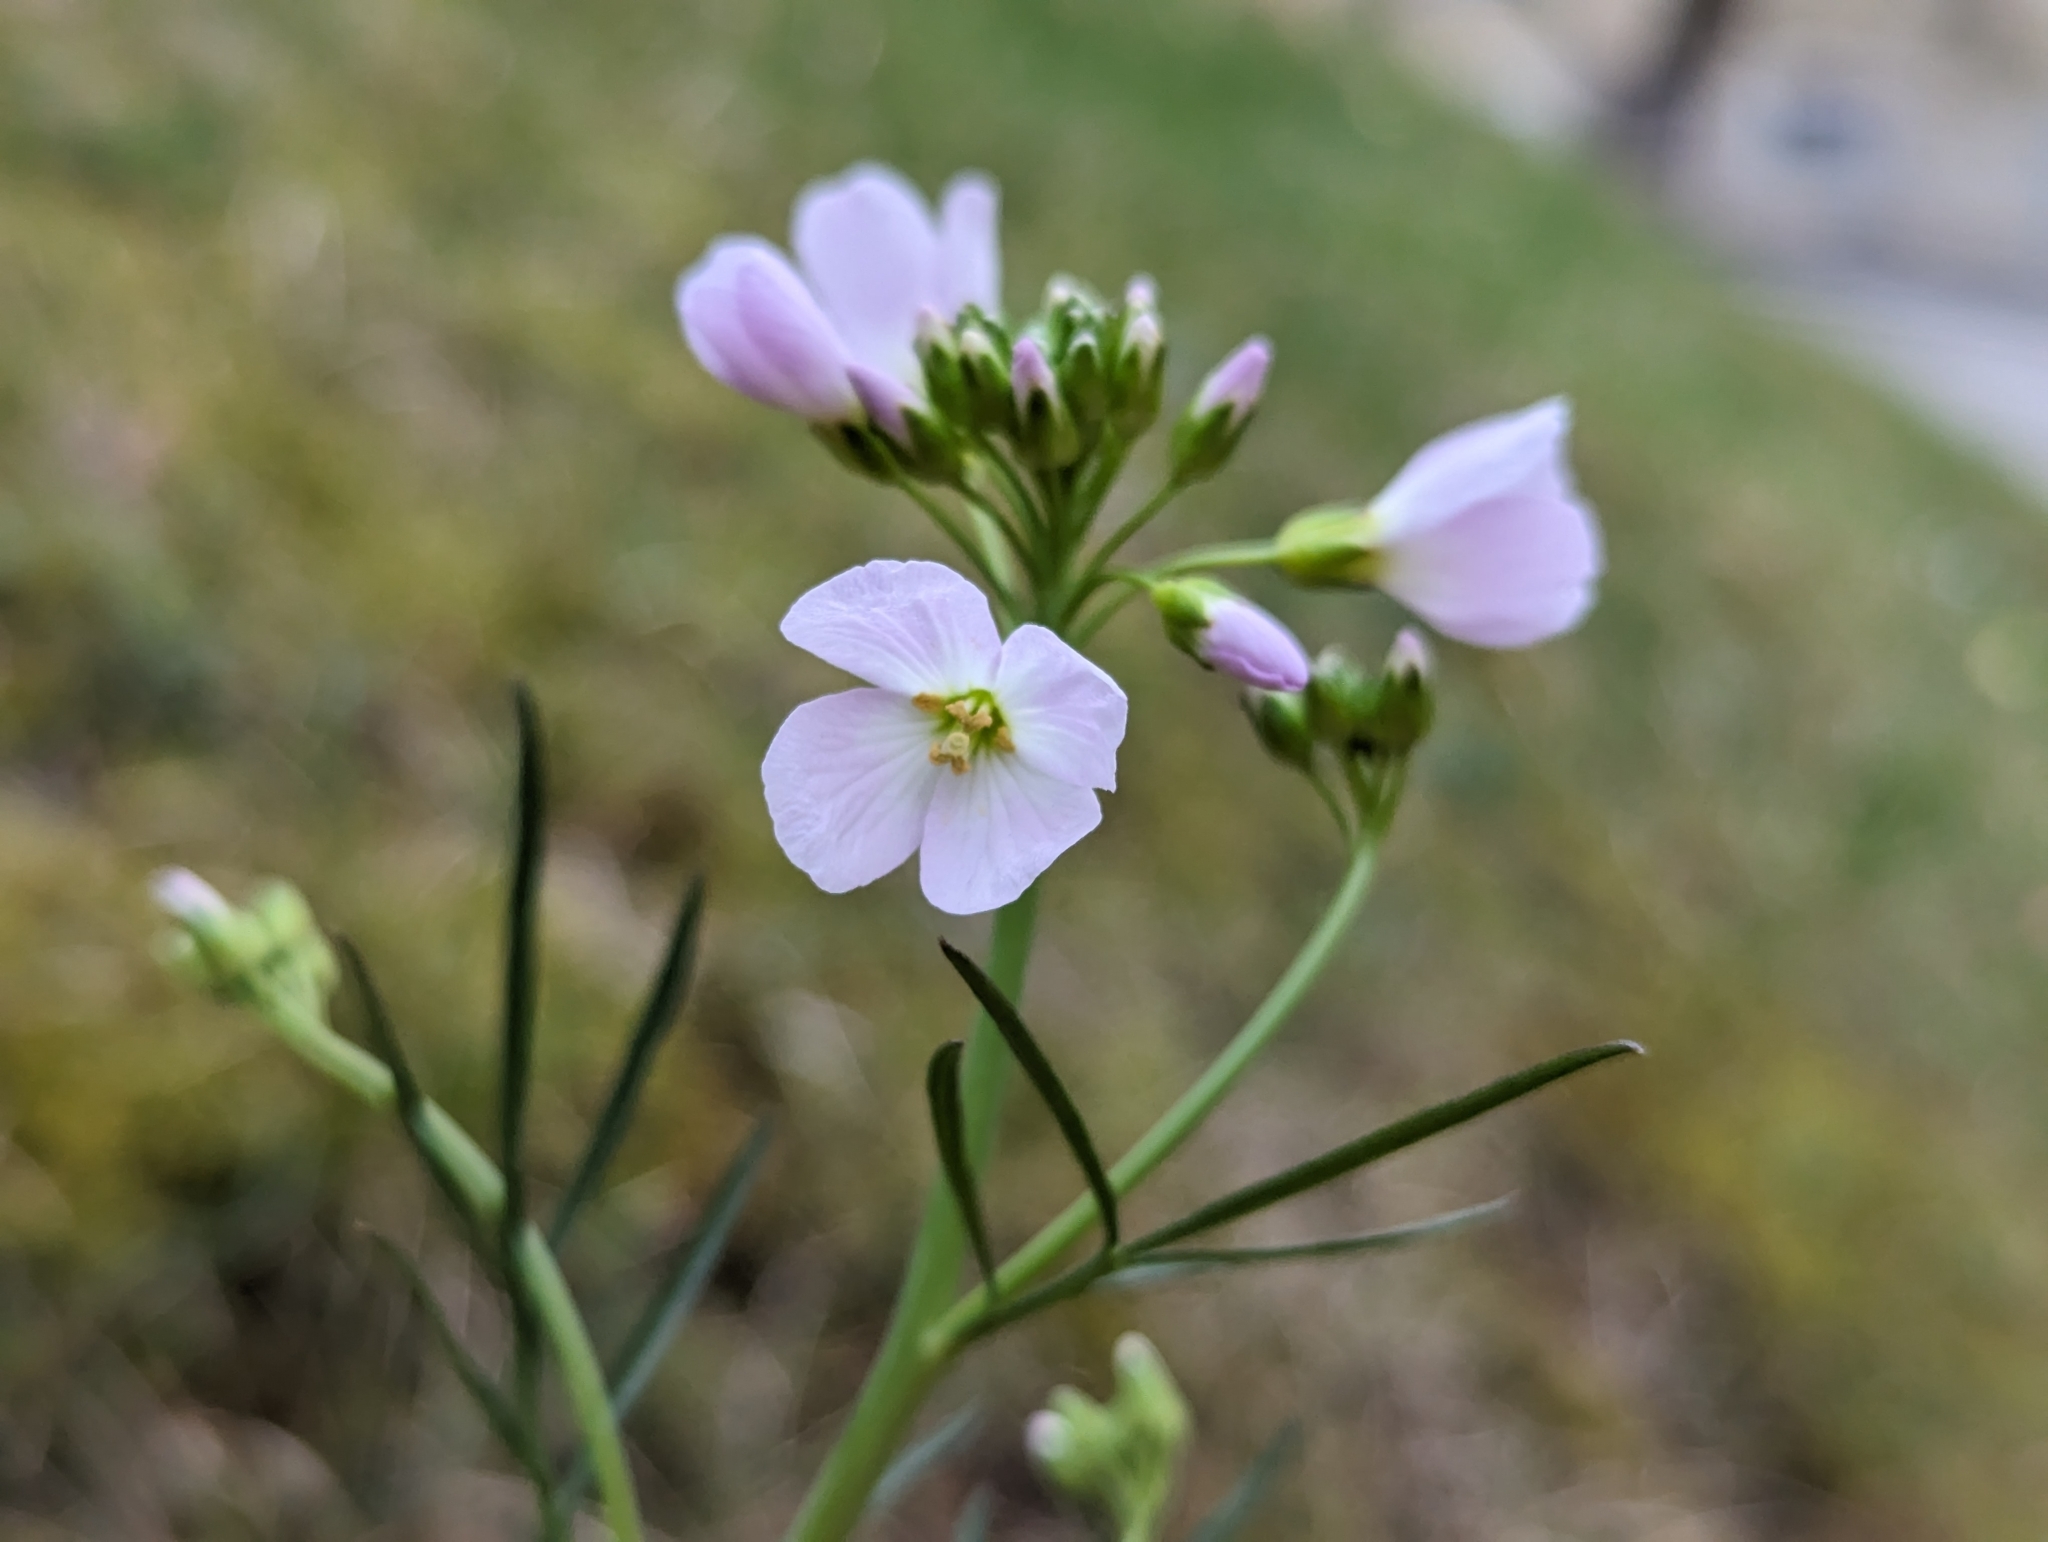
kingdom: Plantae
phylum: Tracheophyta
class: Magnoliopsida
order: Brassicales
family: Brassicaceae
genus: Cardamine
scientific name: Cardamine pratensis
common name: Cuckoo flower
